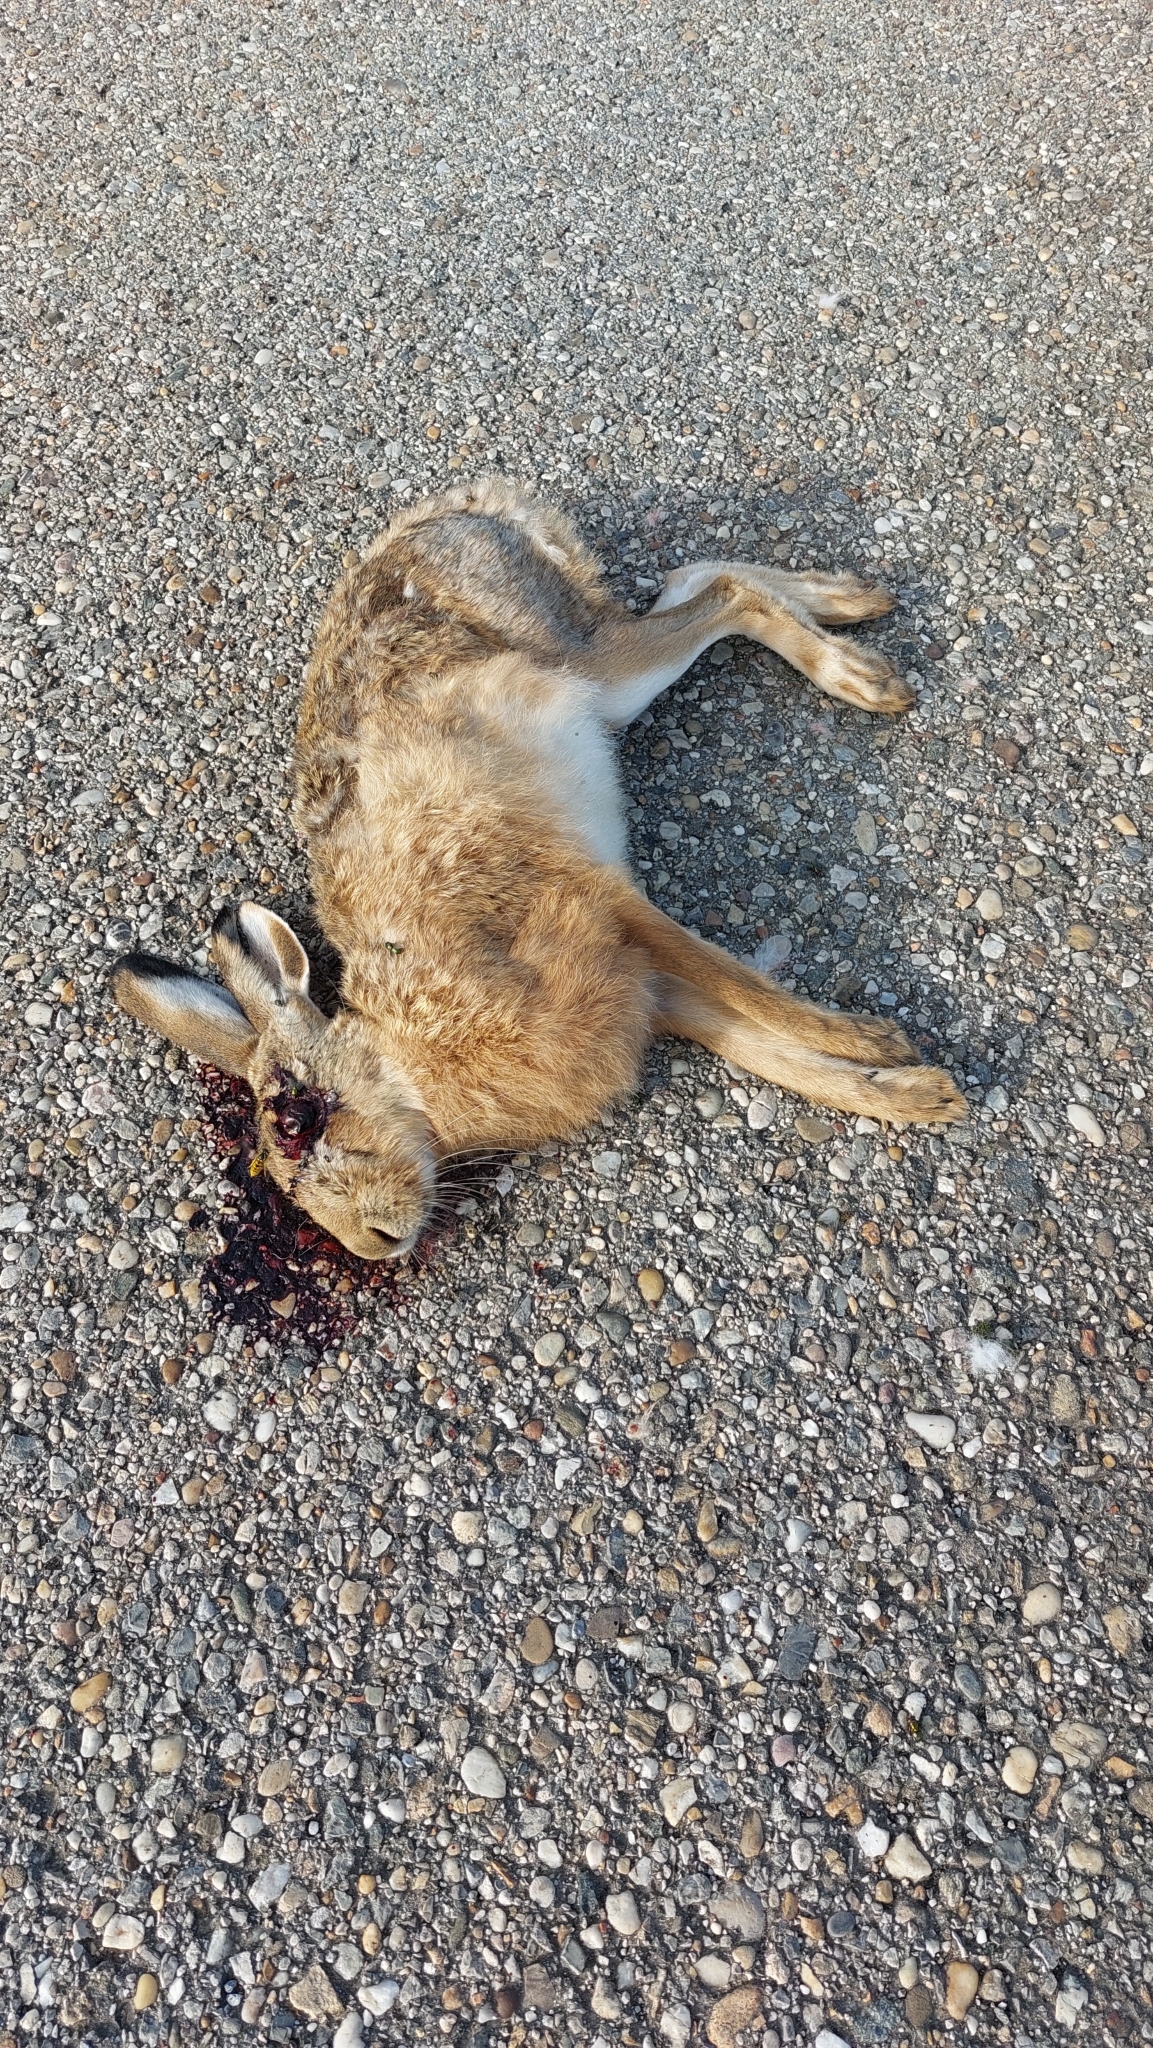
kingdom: Animalia
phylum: Chordata
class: Mammalia
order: Lagomorpha
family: Leporidae
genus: Lepus
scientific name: Lepus europaeus
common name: European hare
